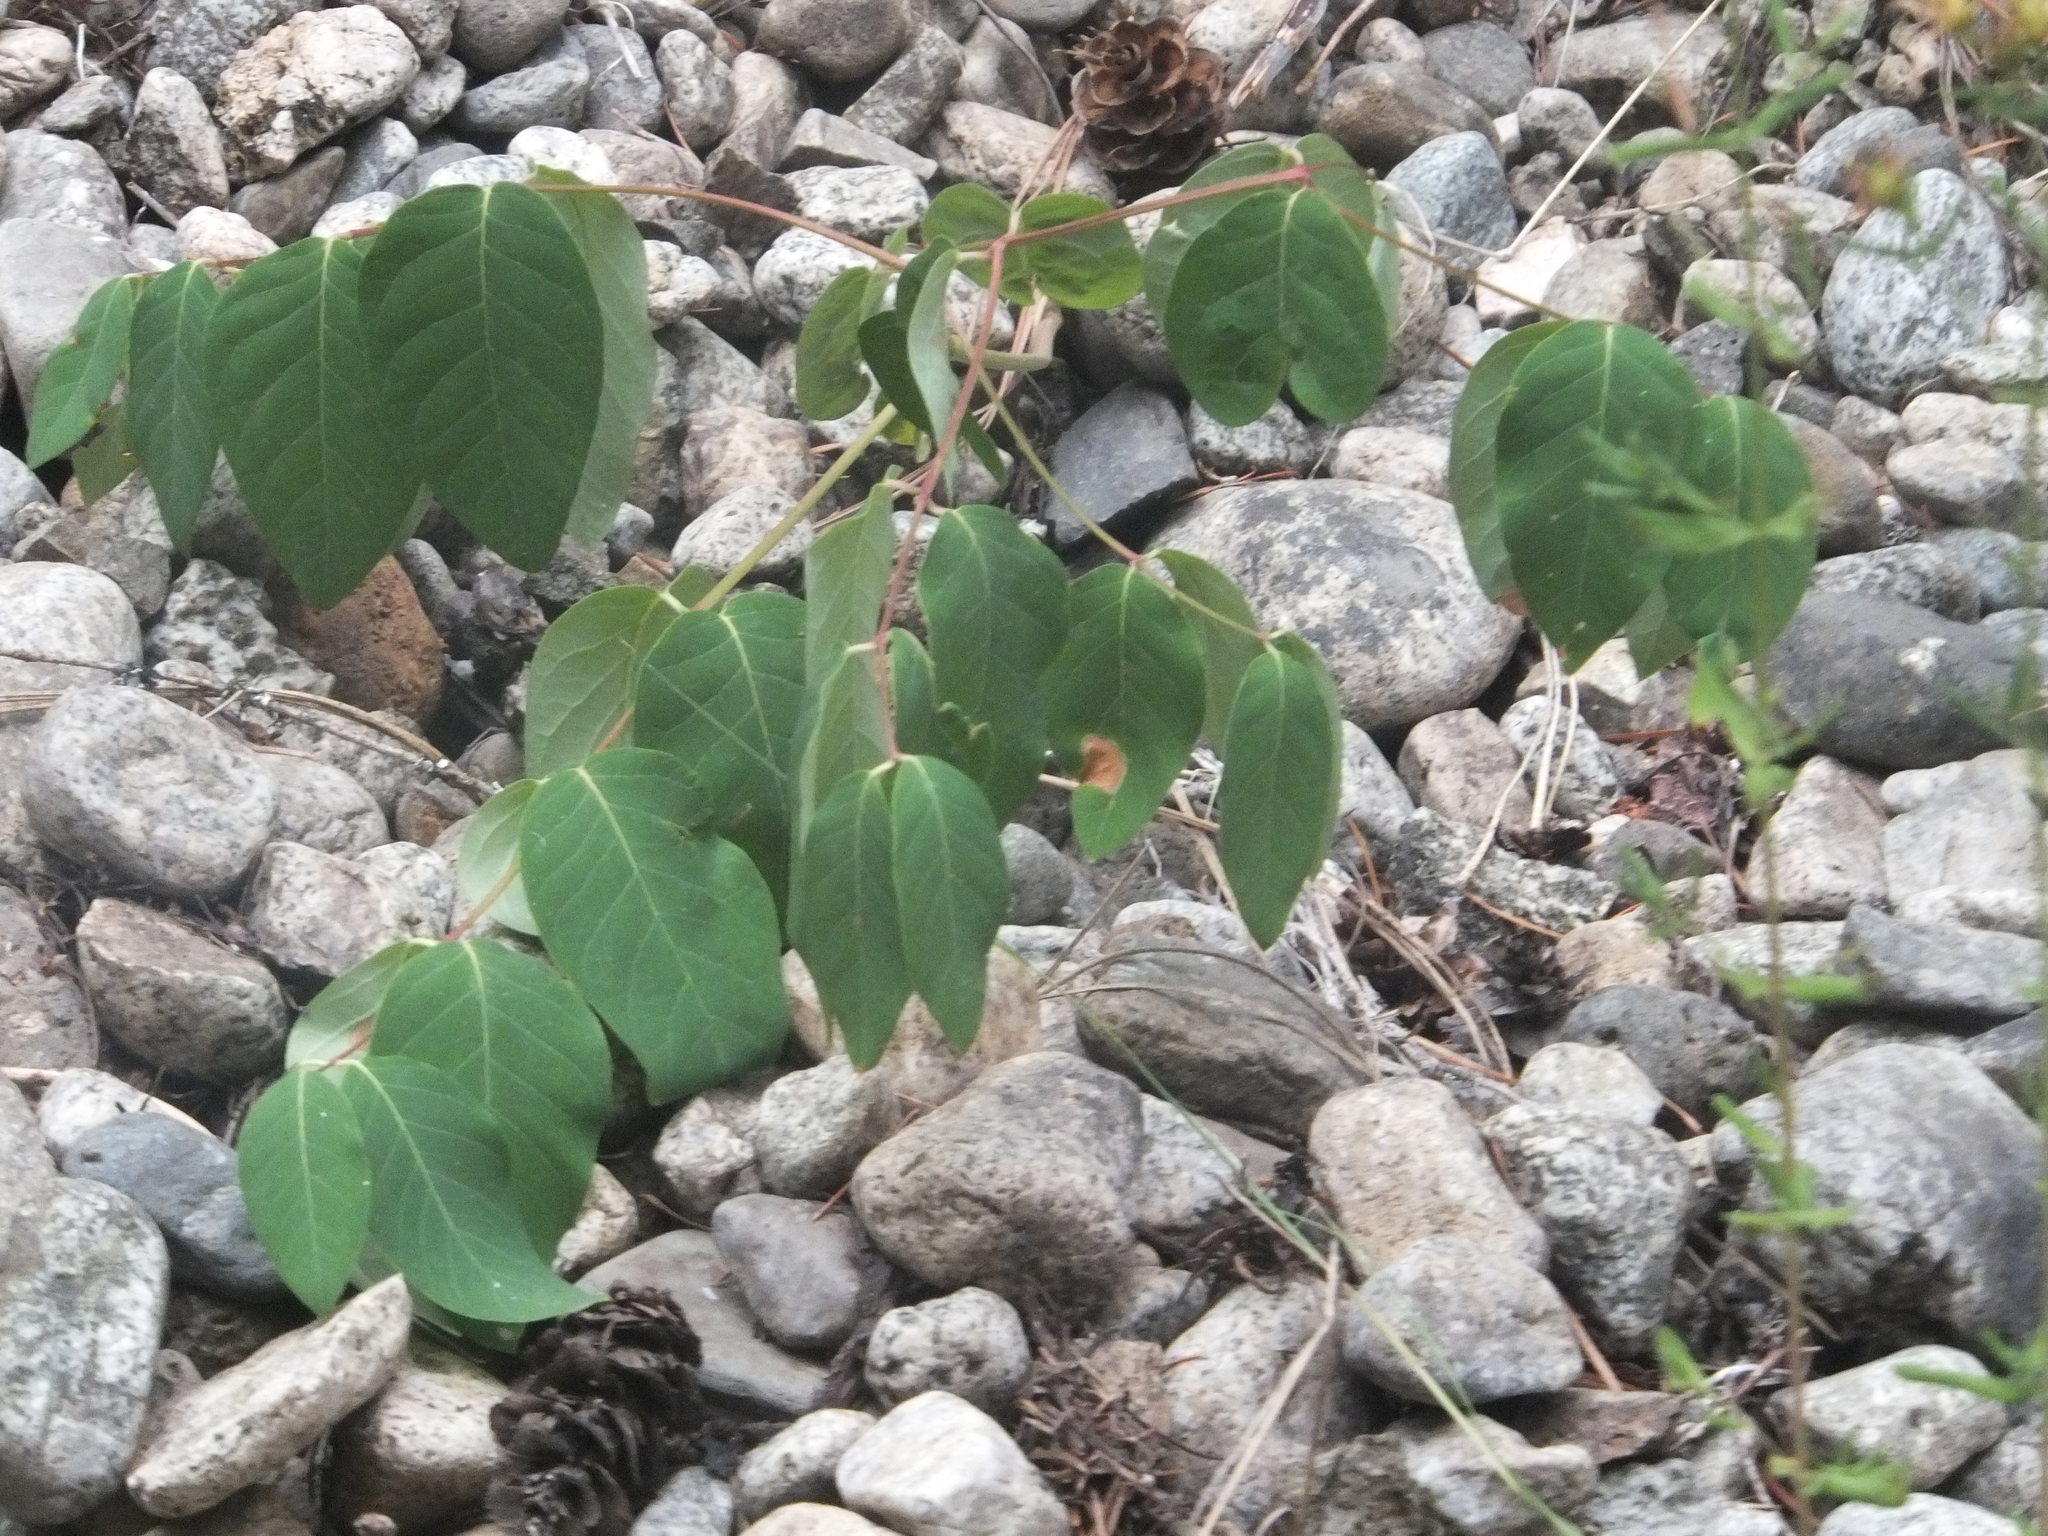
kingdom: Plantae
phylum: Tracheophyta
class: Magnoliopsida
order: Gentianales
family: Apocynaceae
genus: Apocynum
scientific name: Apocynum androsaemifolium
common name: Spreading dogbane
